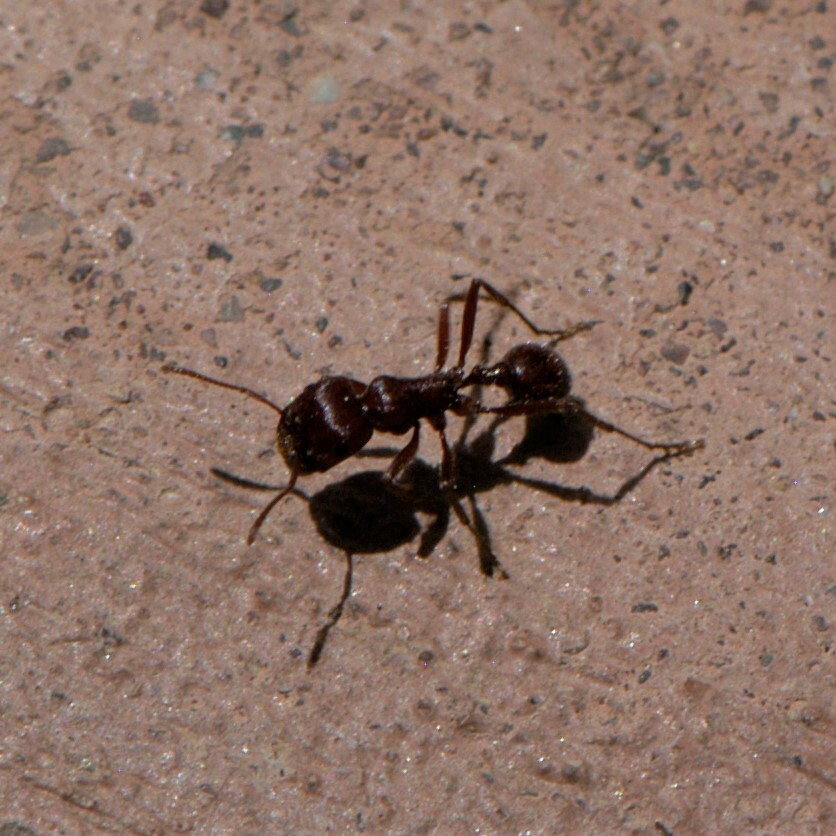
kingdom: Animalia
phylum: Arthropoda
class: Insecta
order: Hymenoptera
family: Formicidae
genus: Pogonomyrmex
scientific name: Pogonomyrmex
